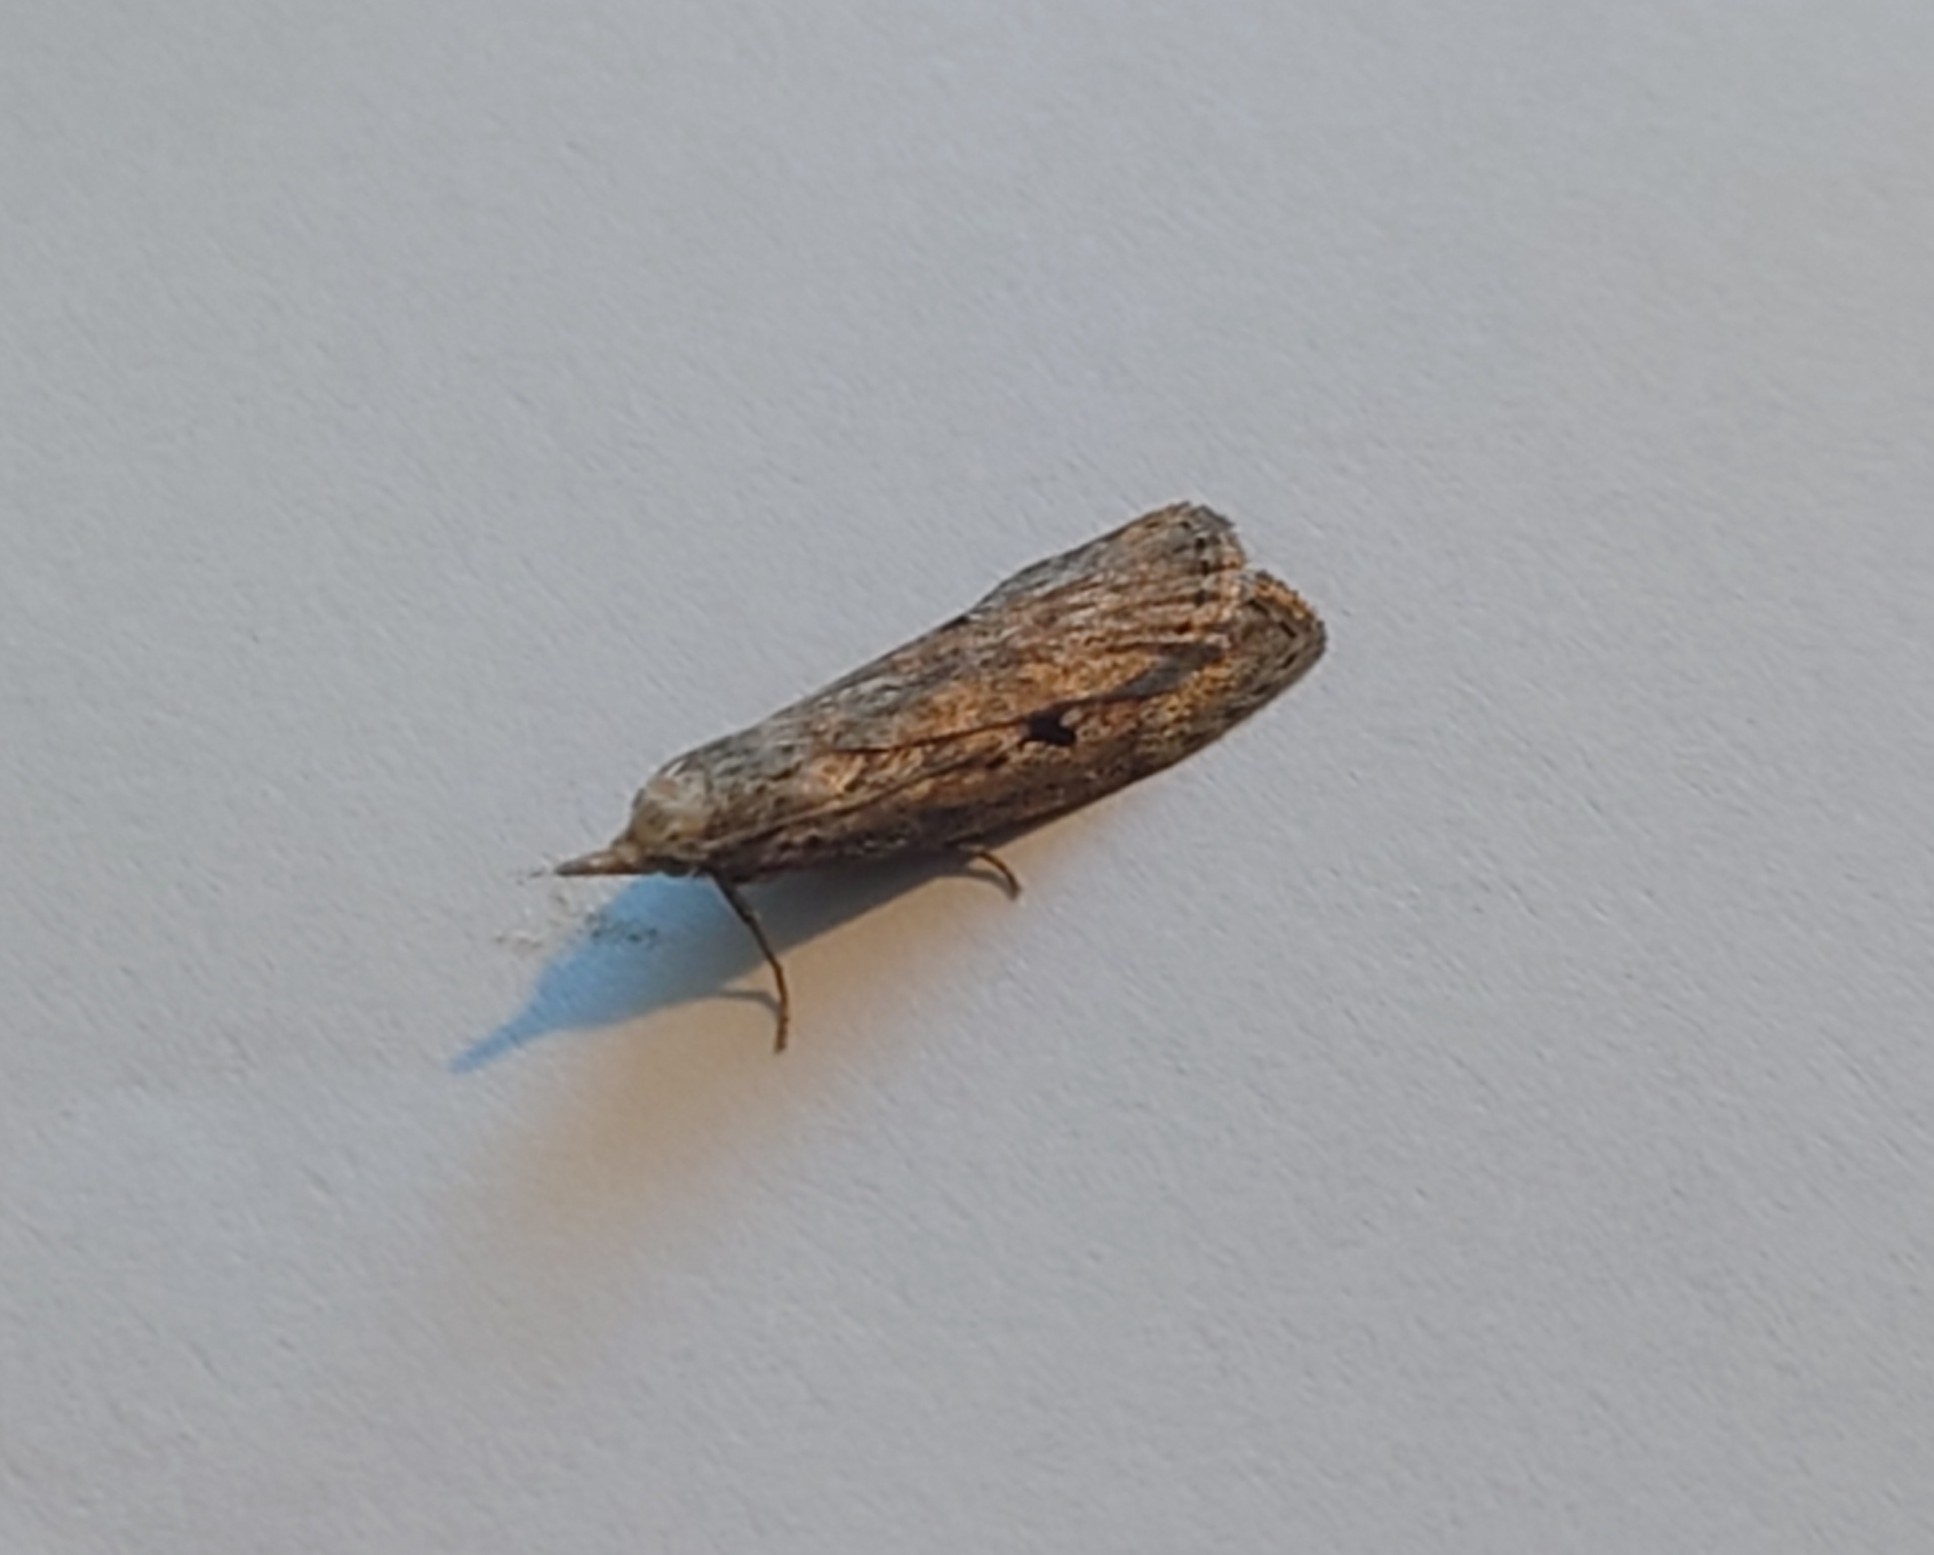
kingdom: Animalia
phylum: Arthropoda
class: Insecta
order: Lepidoptera
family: Pyralidae
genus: Aphomia
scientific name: Aphomia sociella
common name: Bee moth
